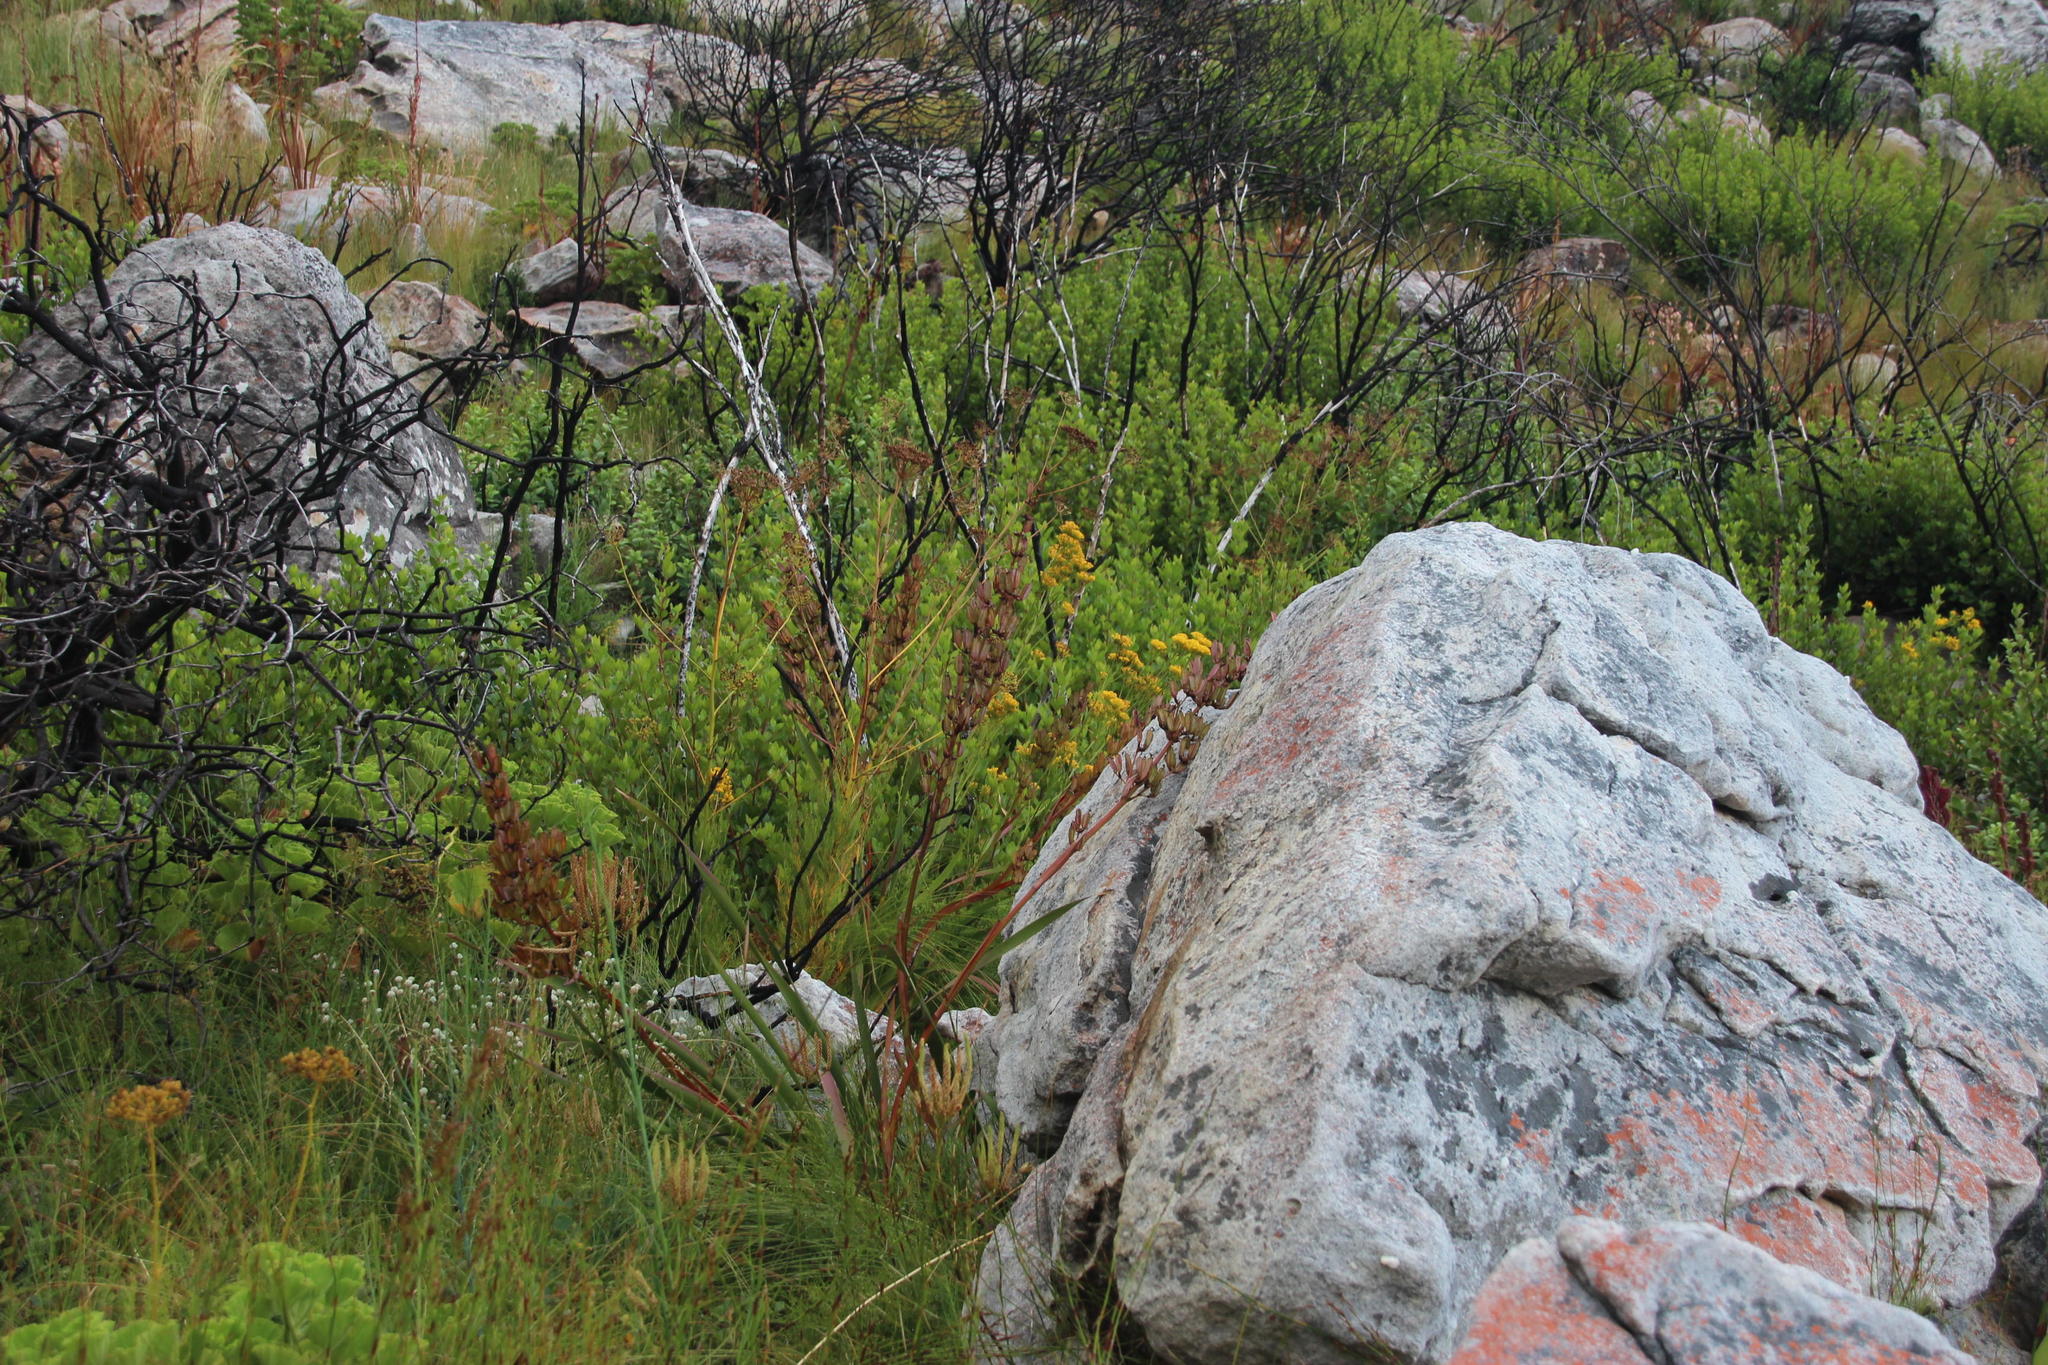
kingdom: Plantae
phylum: Tracheophyta
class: Magnoliopsida
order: Asterales
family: Asteraceae
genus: Senecio
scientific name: Senecio bipinnatus
